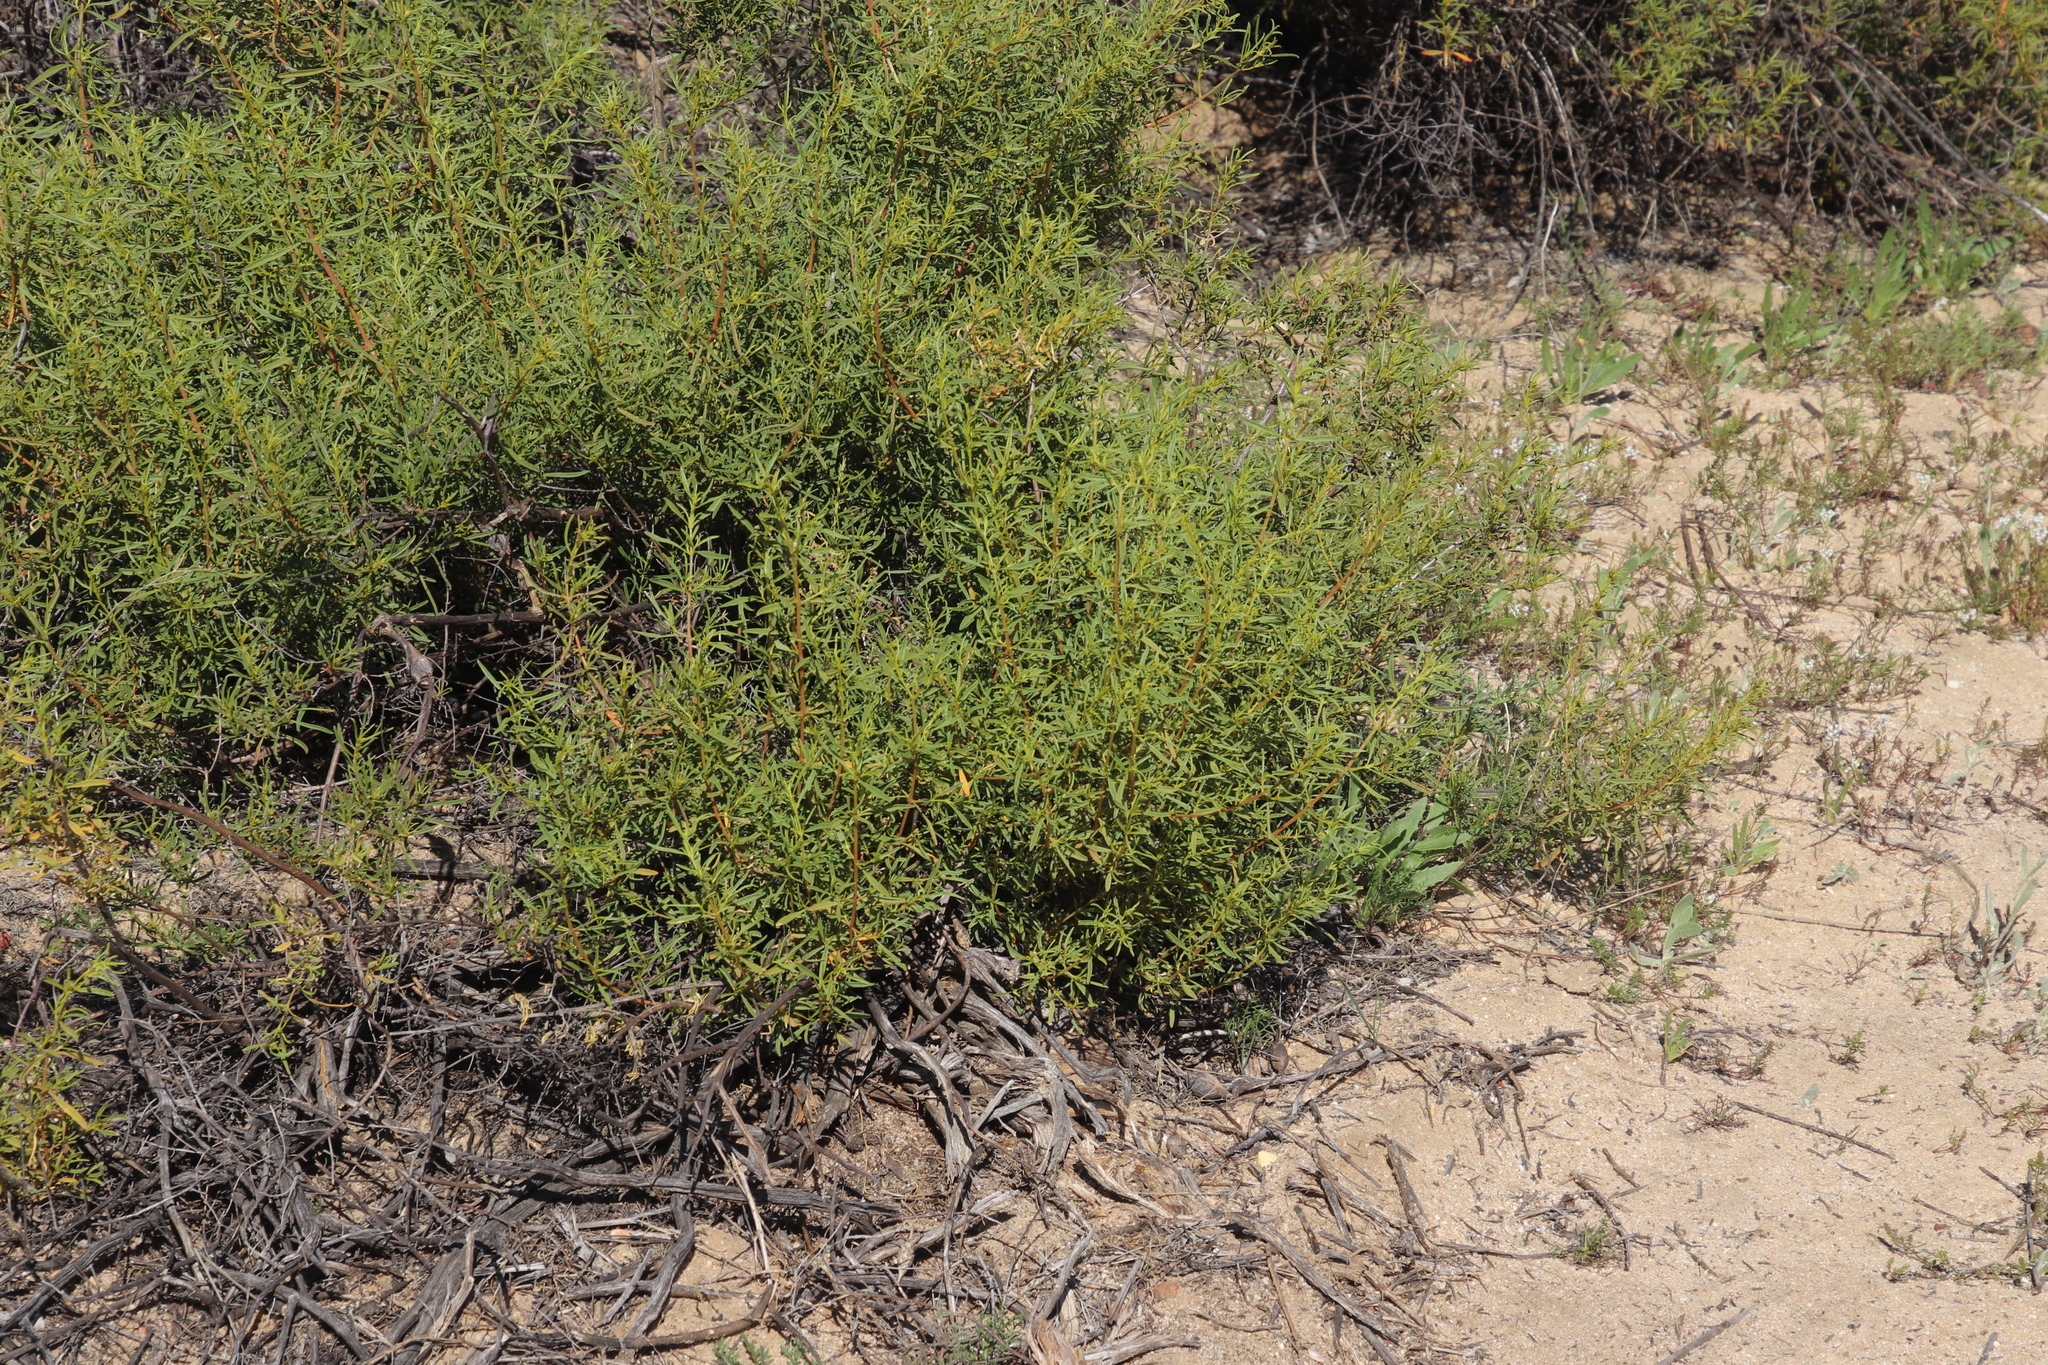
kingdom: Plantae
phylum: Tracheophyta
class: Magnoliopsida
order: Caryophyllales
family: Aizoaceae
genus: Aizoon
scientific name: Aizoon africanum
